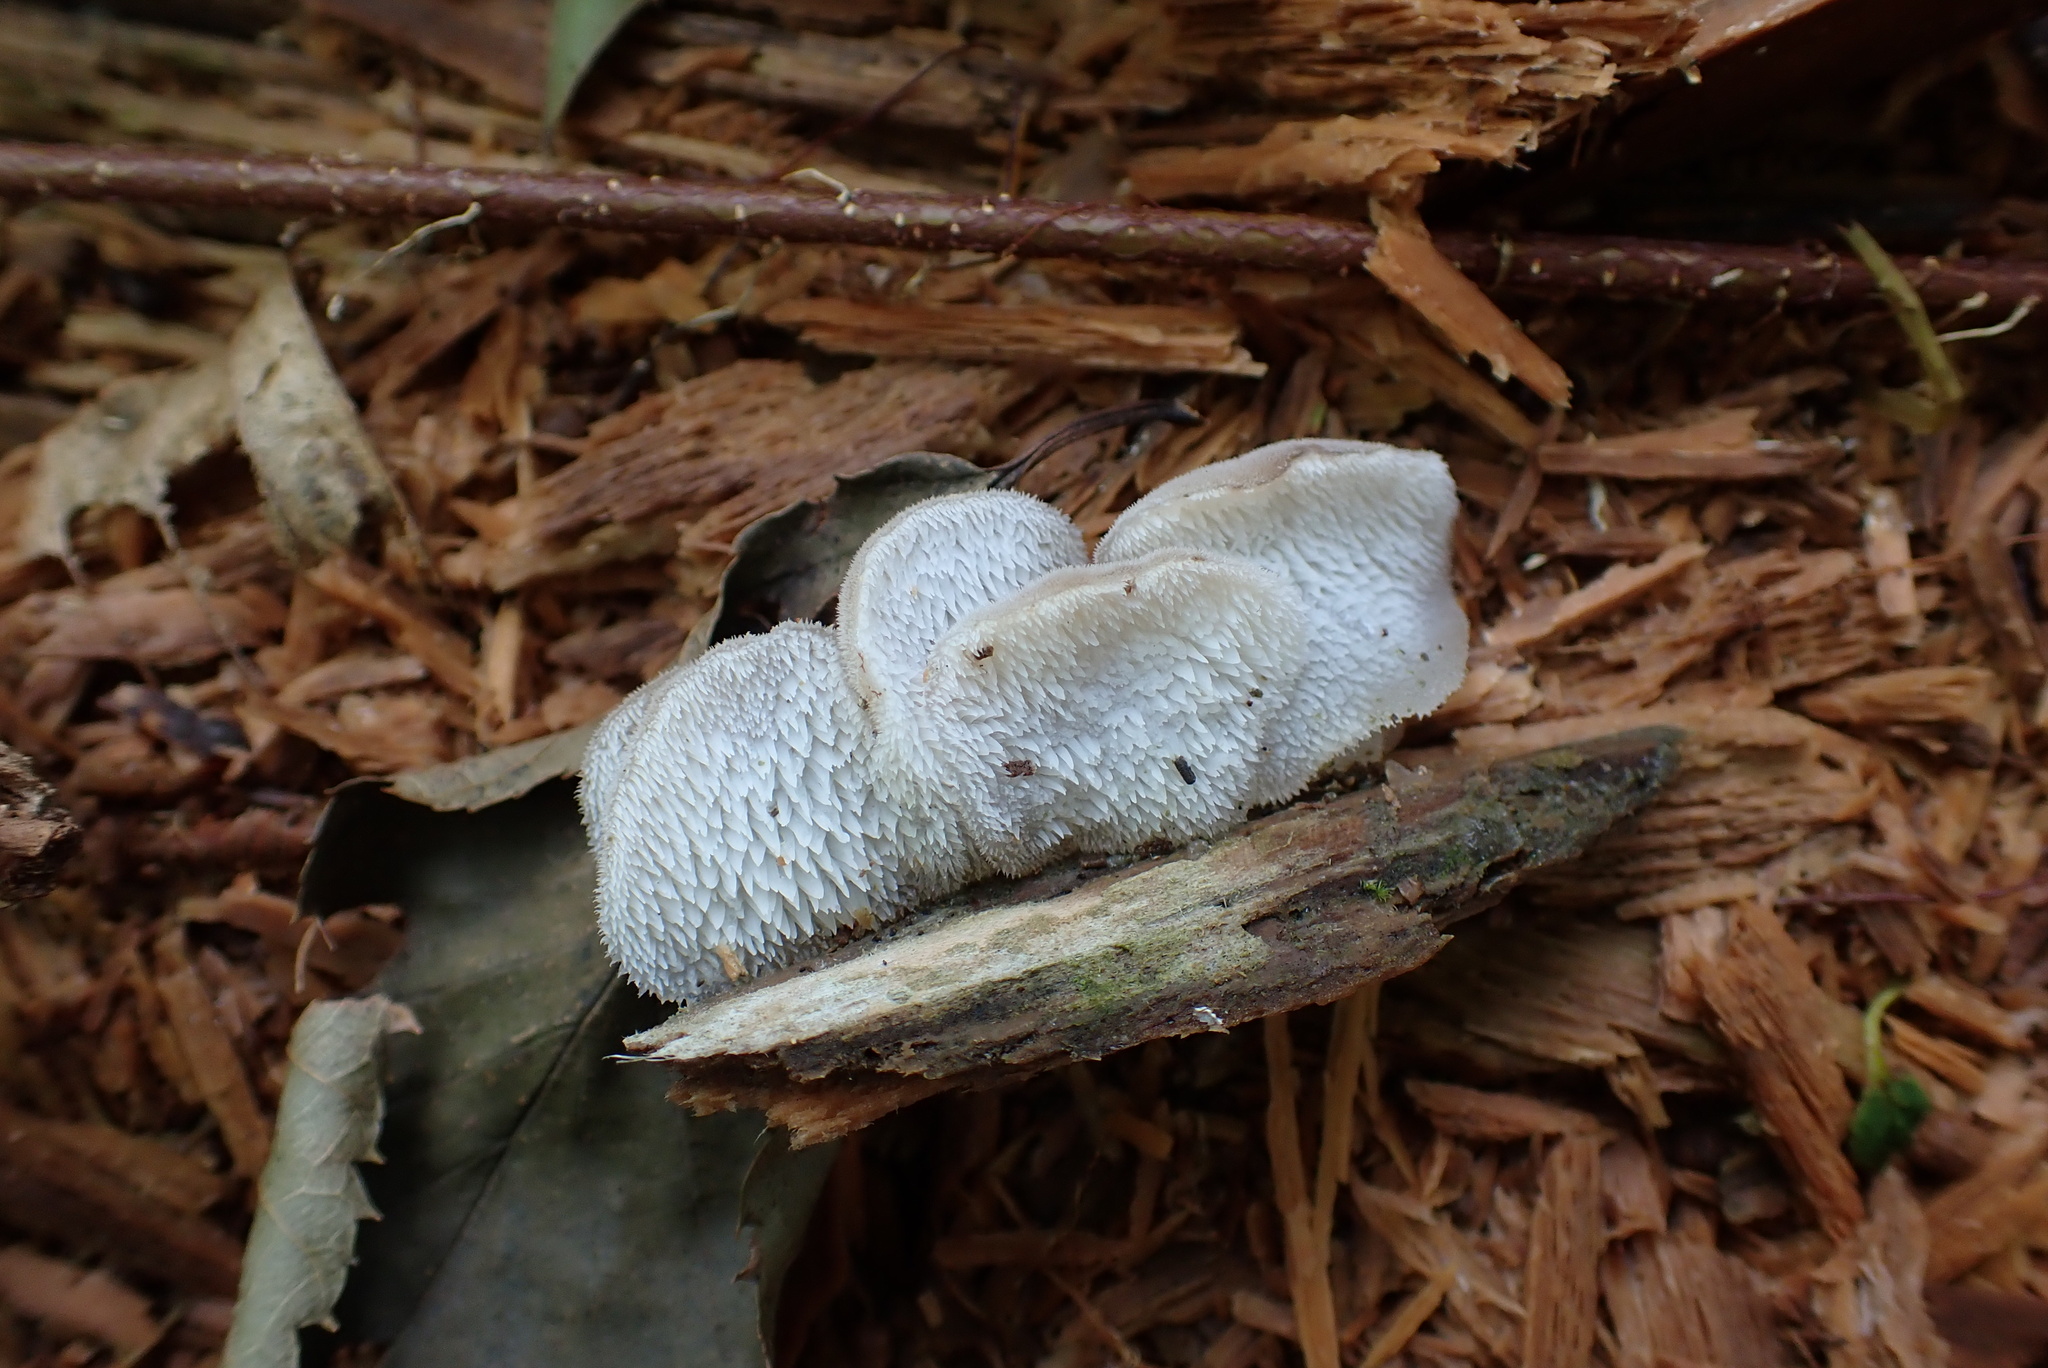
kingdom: Fungi
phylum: Basidiomycota
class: Agaricomycetes
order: Auriculariales
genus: Pseudohydnum
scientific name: Pseudohydnum gelatinosum
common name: Jelly tongue
